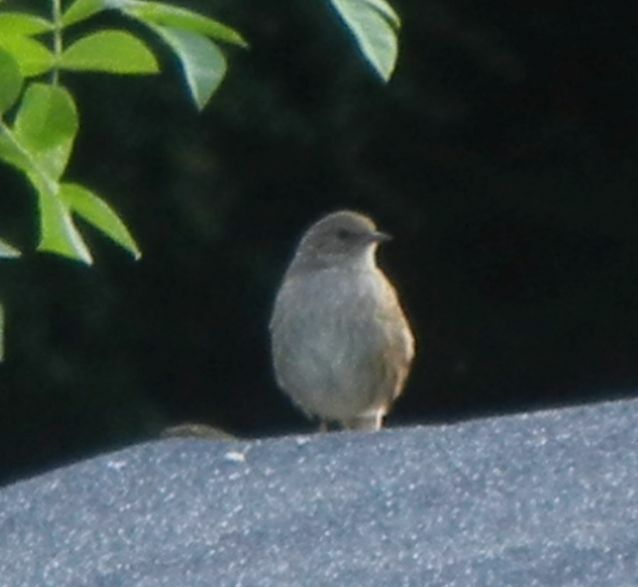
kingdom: Animalia
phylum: Chordata
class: Aves
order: Passeriformes
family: Prunellidae
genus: Prunella
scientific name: Prunella modularis
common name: Dunnock
